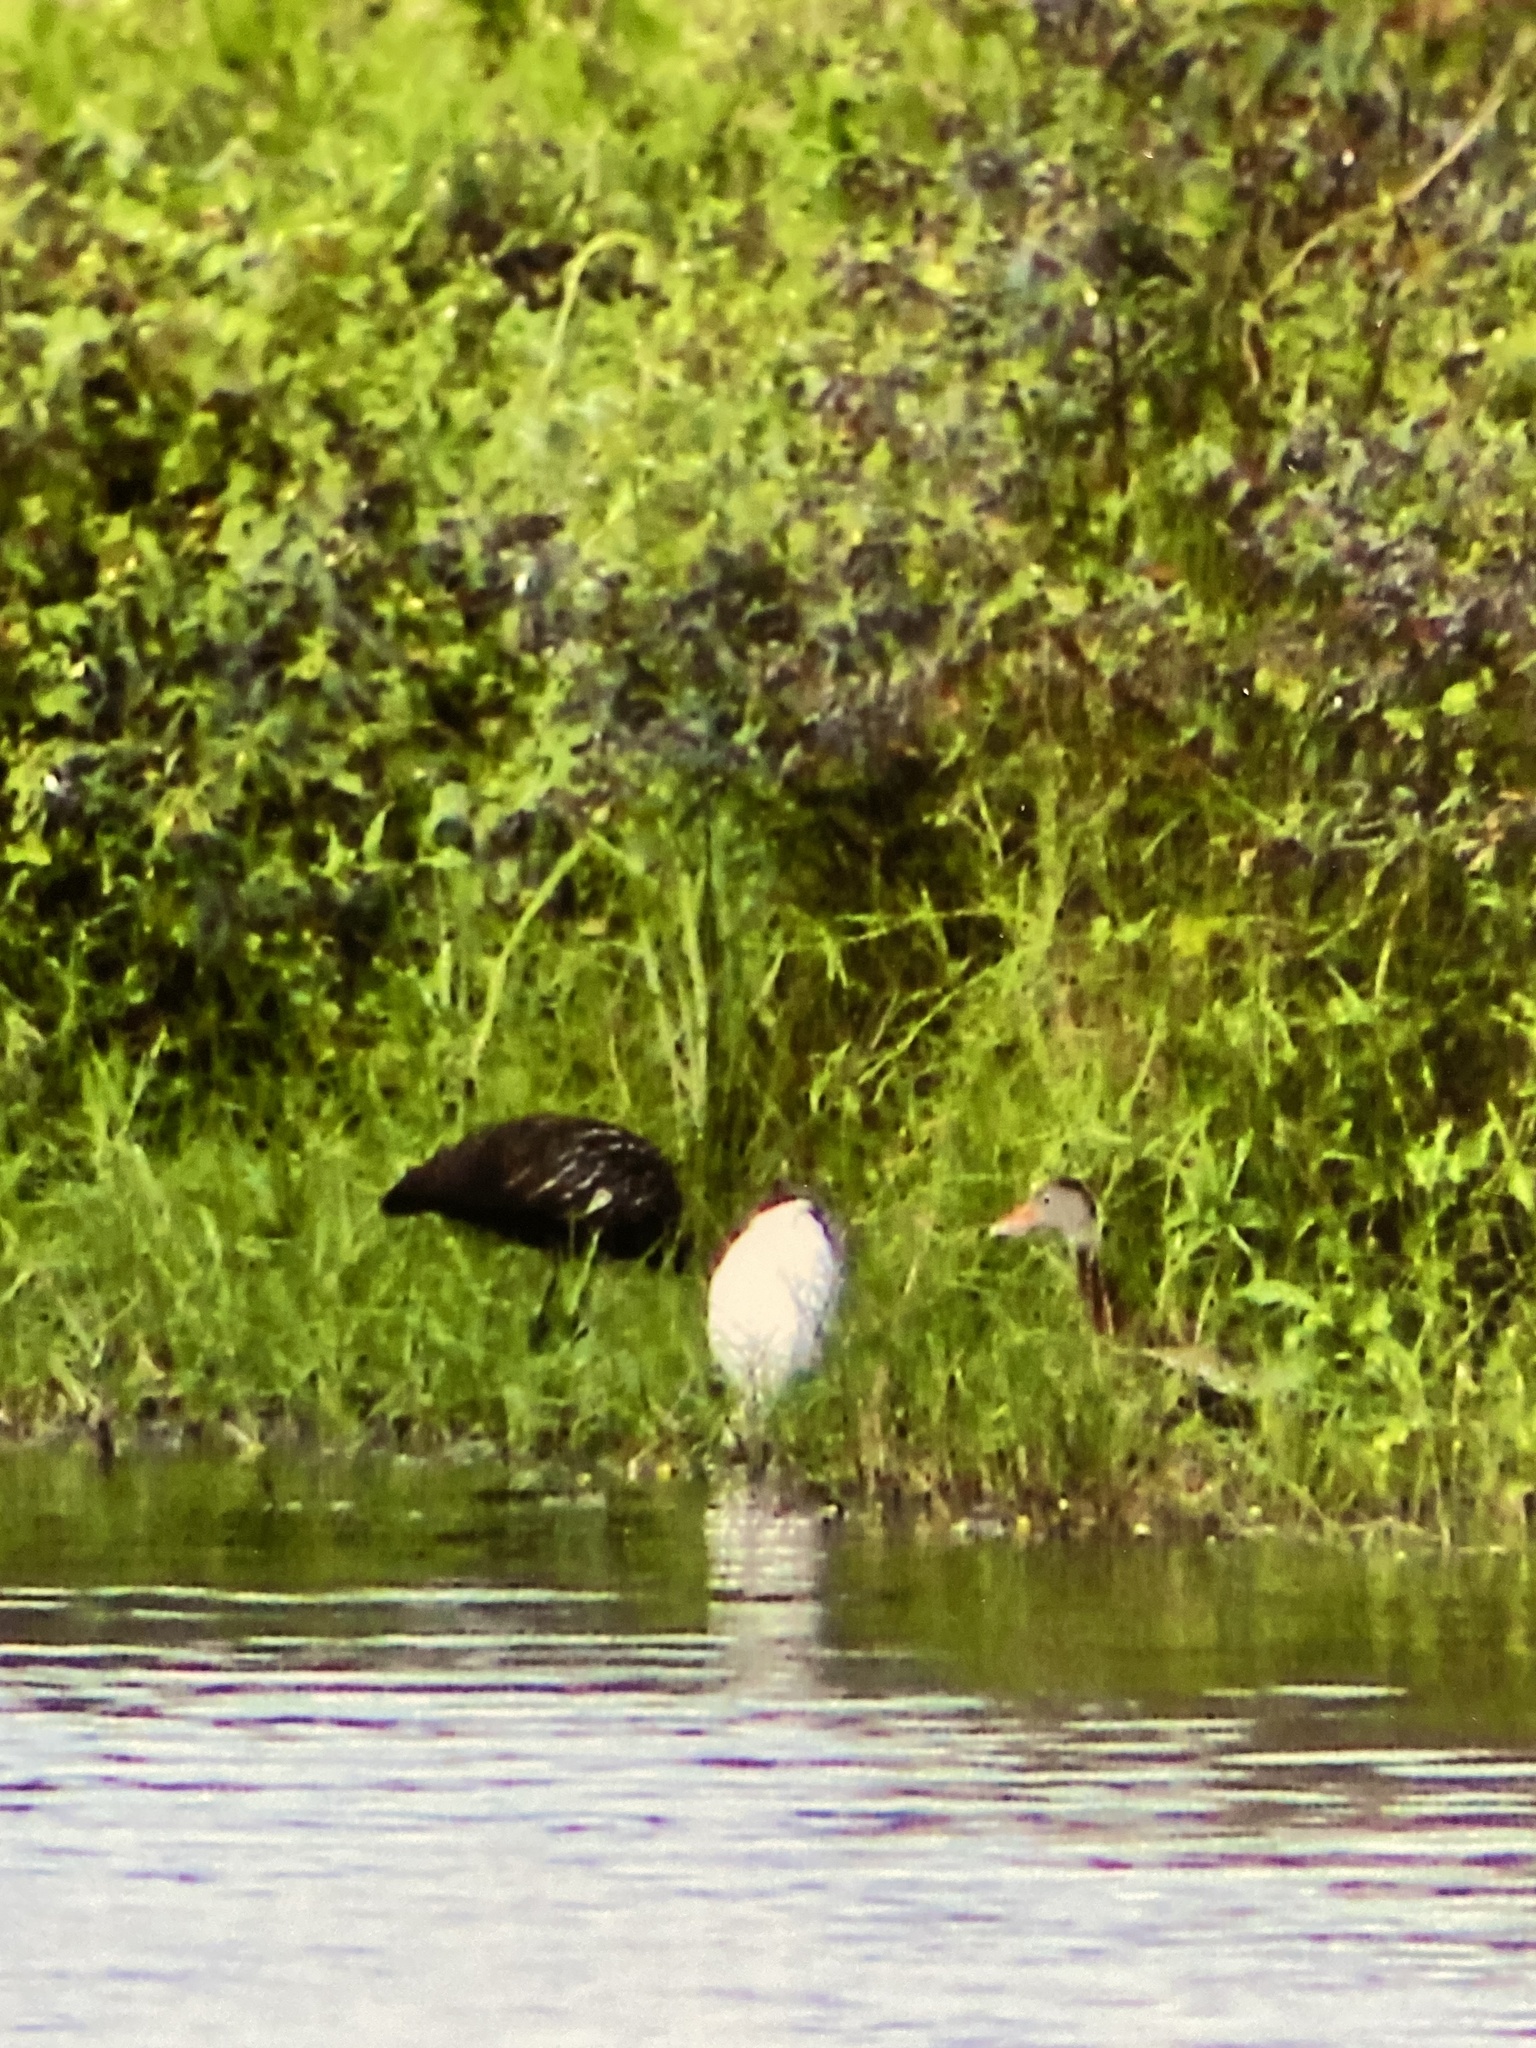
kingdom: Animalia
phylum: Chordata
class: Aves
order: Anseriformes
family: Anatidae
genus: Dendrocygna
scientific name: Dendrocygna autumnalis
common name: Black-bellied whistling duck
